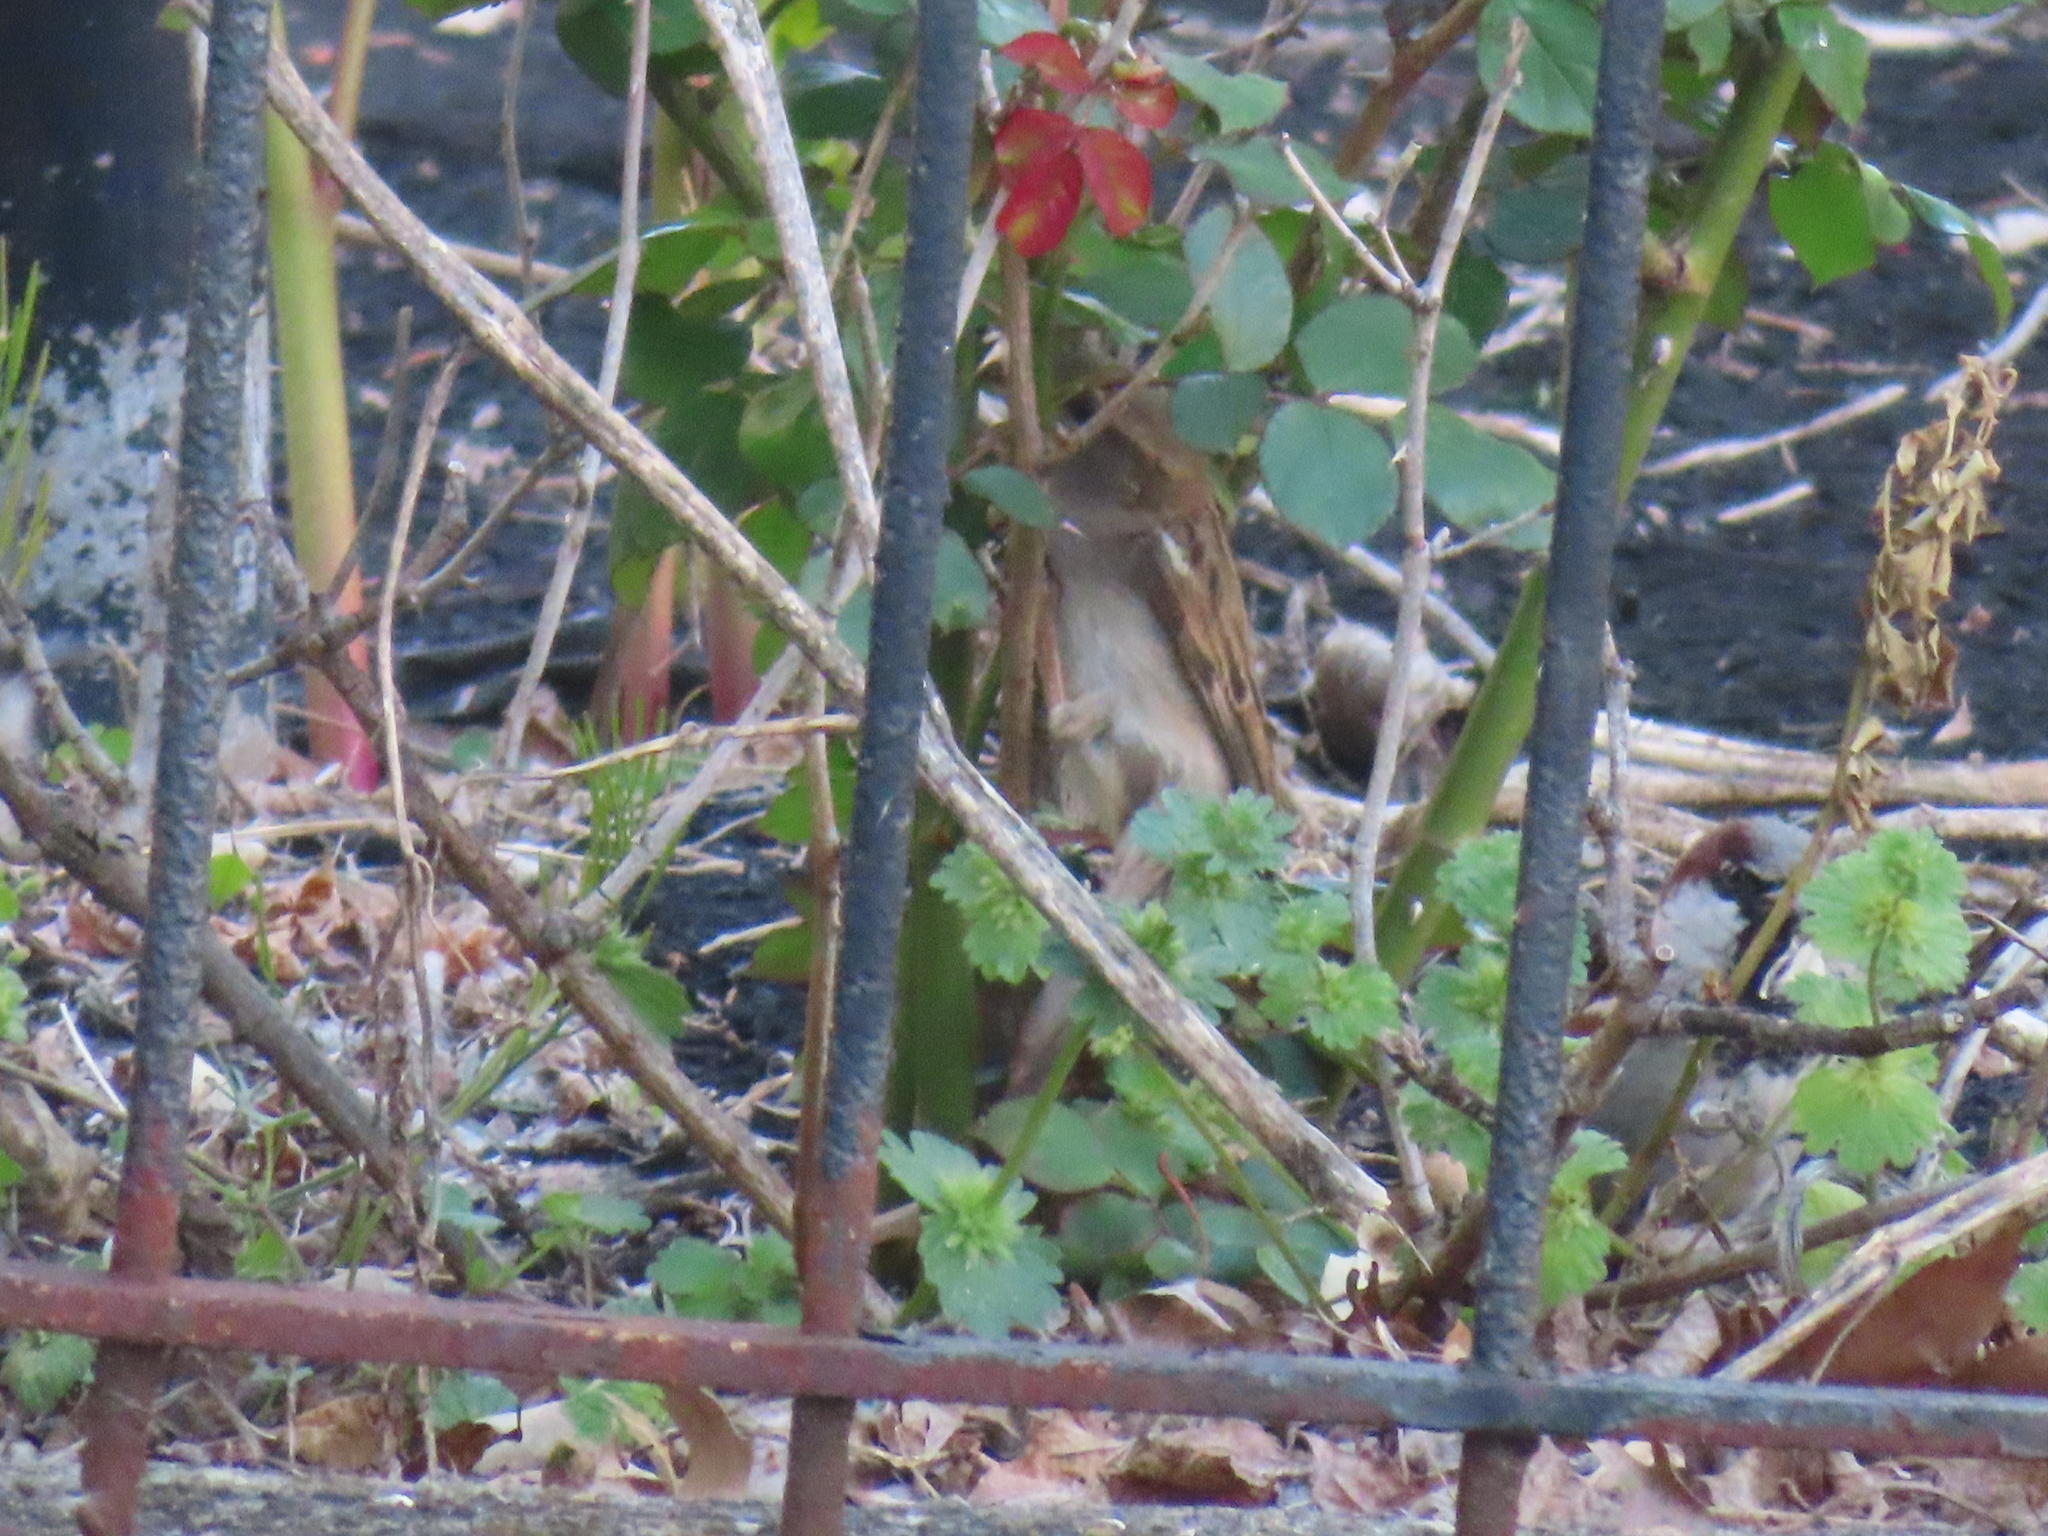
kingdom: Animalia
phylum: Chordata
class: Aves
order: Passeriformes
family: Passeridae
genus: Passer
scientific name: Passer domesticus
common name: House sparrow
